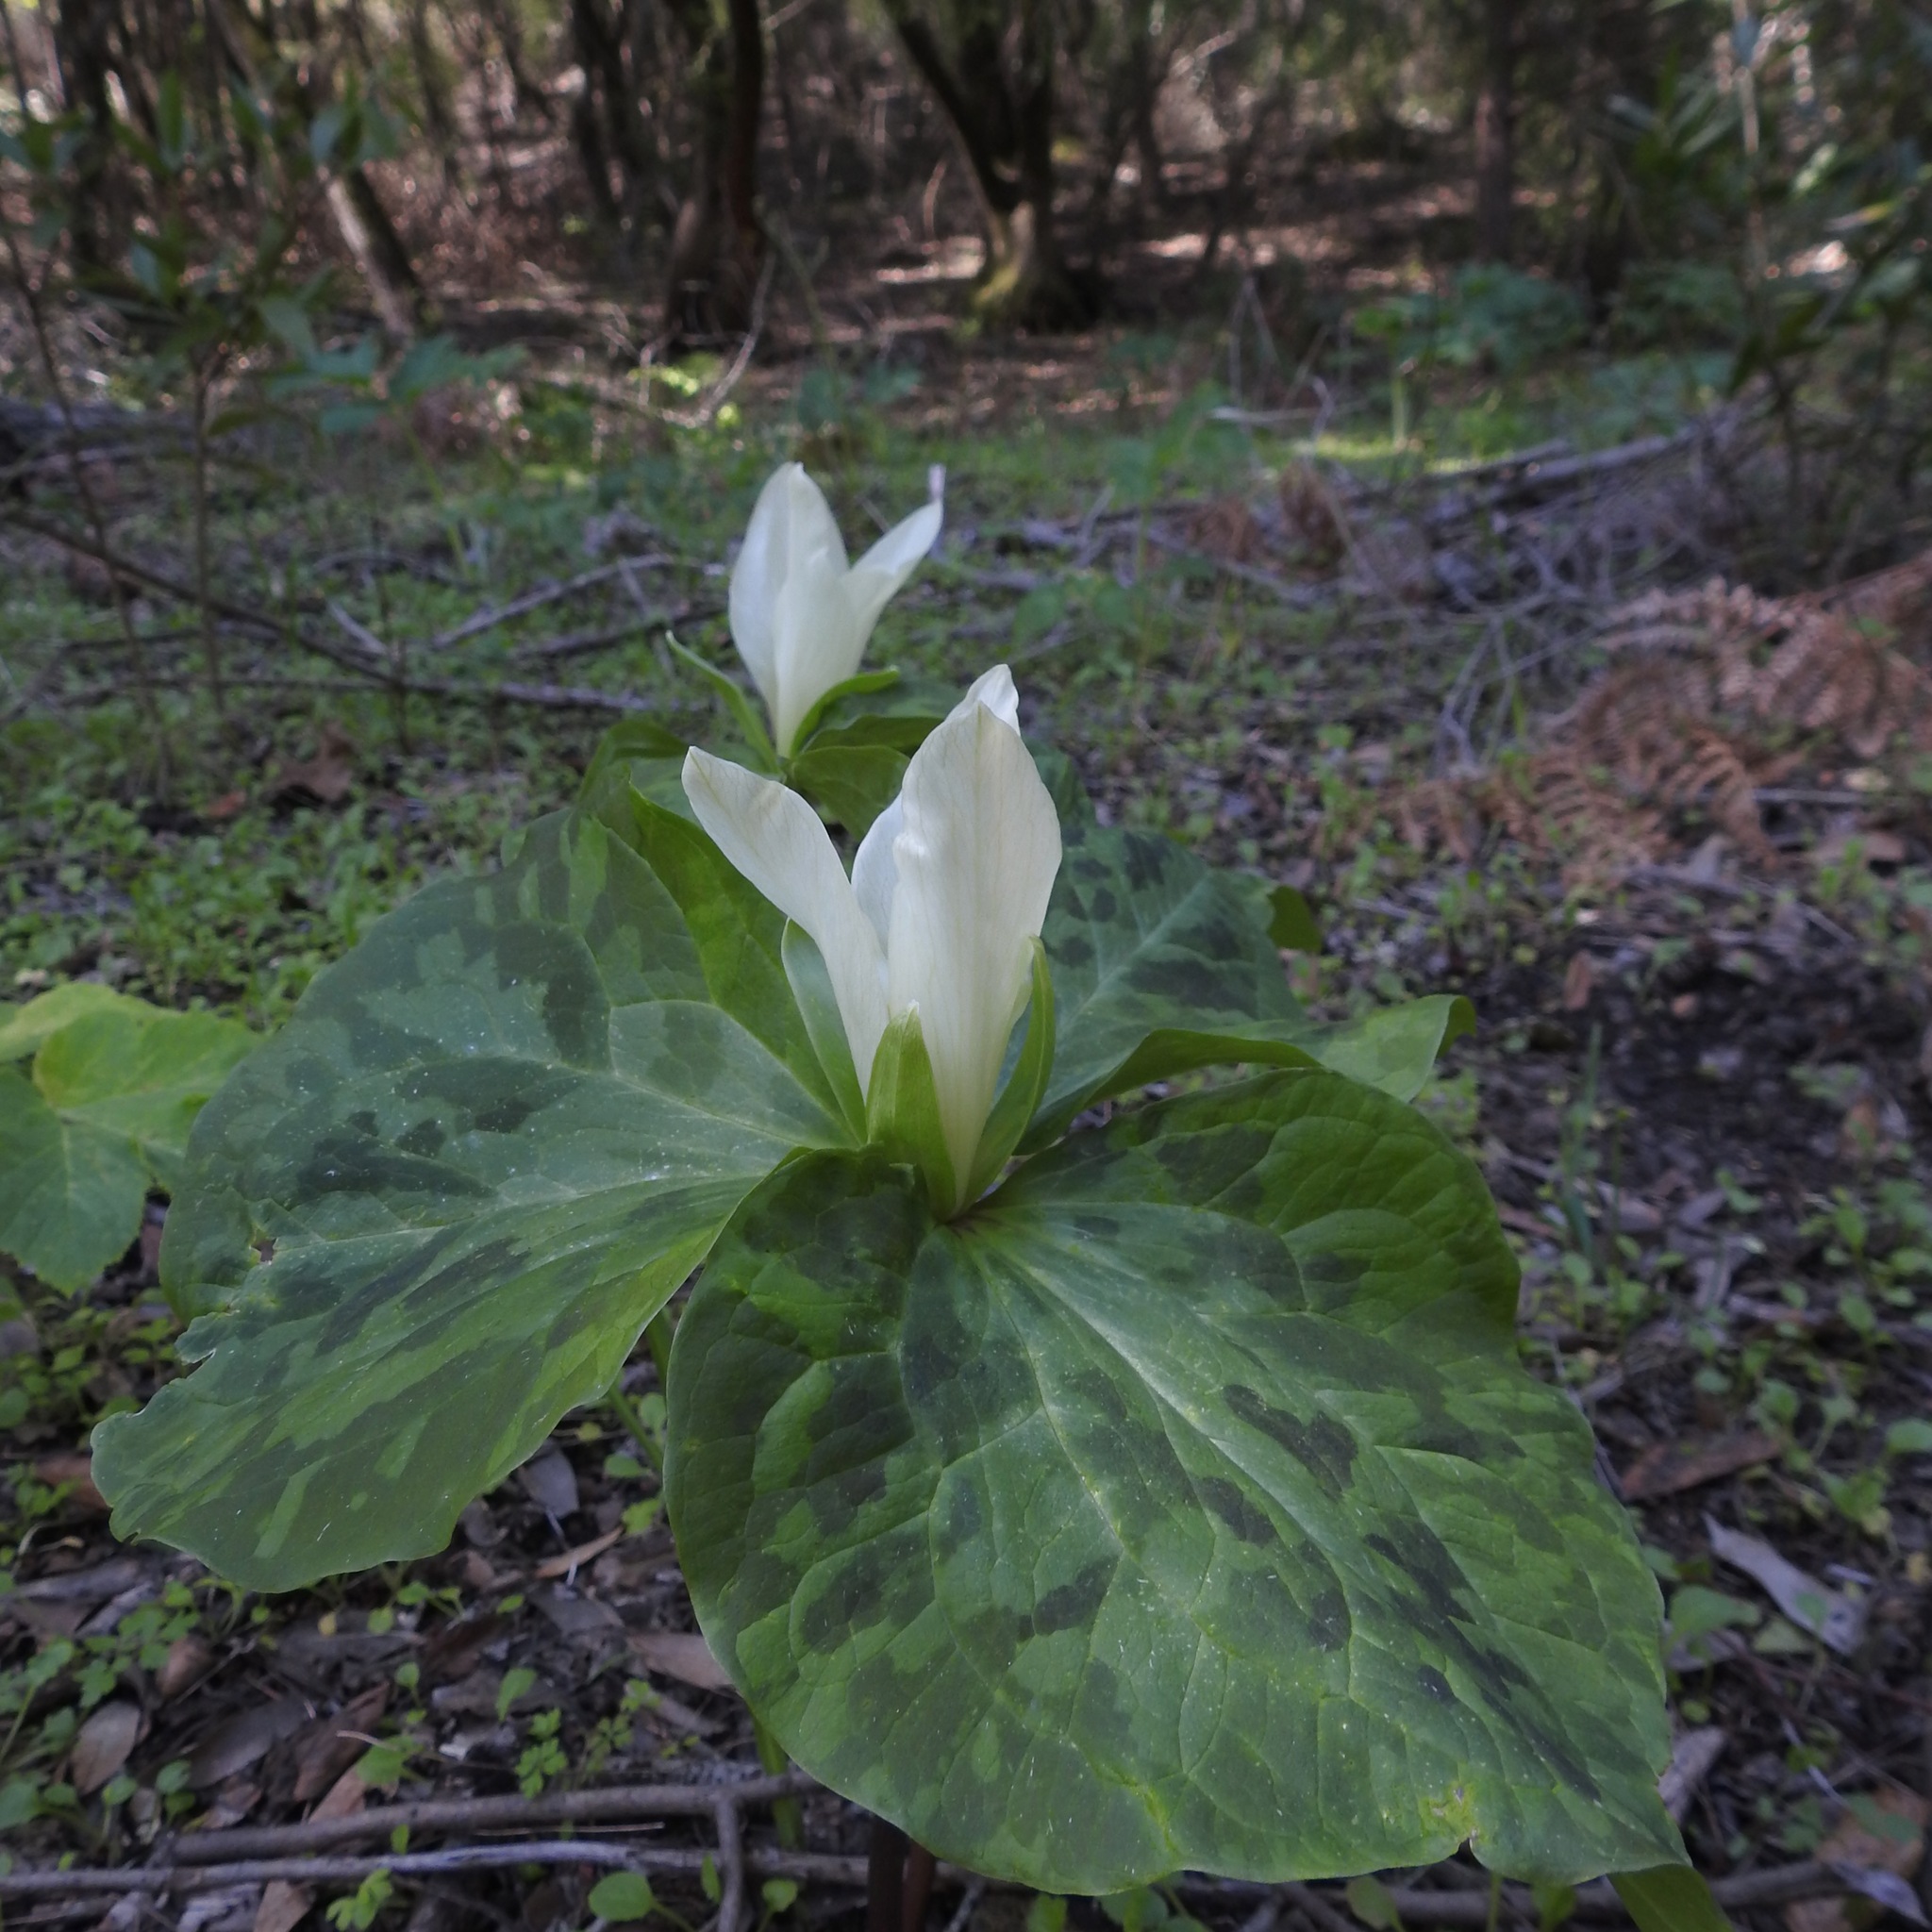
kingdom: Plantae
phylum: Tracheophyta
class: Liliopsida
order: Liliales
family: Melanthiaceae
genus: Trillium
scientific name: Trillium albidum
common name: Freeman's trillium
